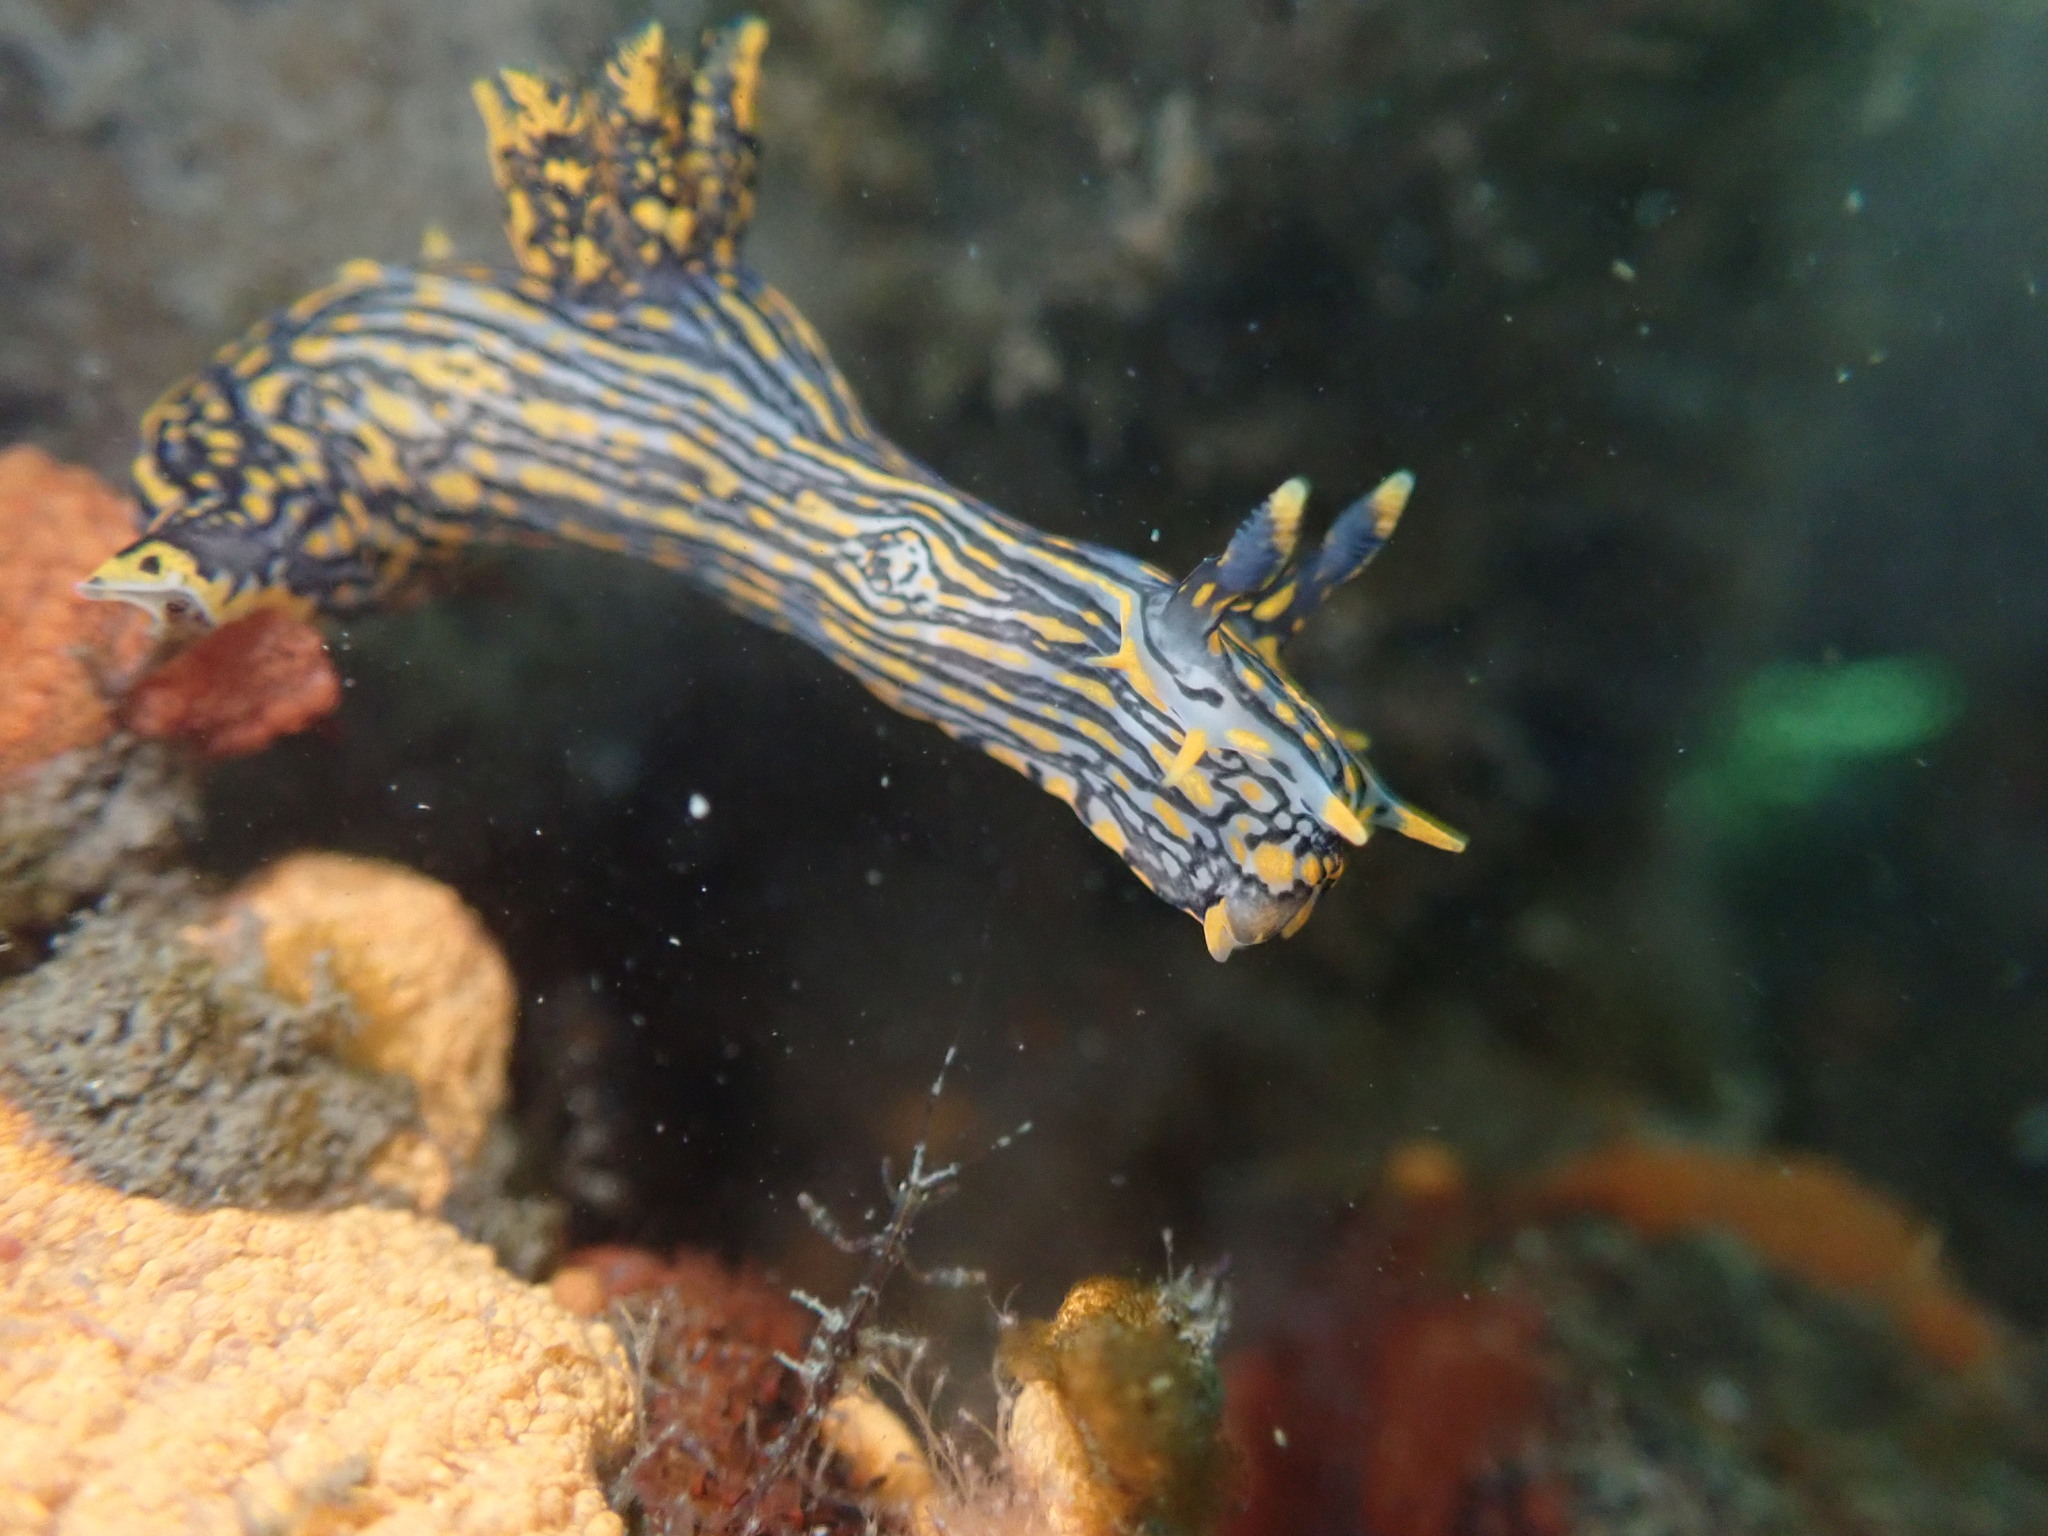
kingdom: Animalia
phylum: Mollusca
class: Gastropoda
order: Nudibranchia
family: Polyceridae
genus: Polycera
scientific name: Polycera atra
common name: Orange-spike polycera
